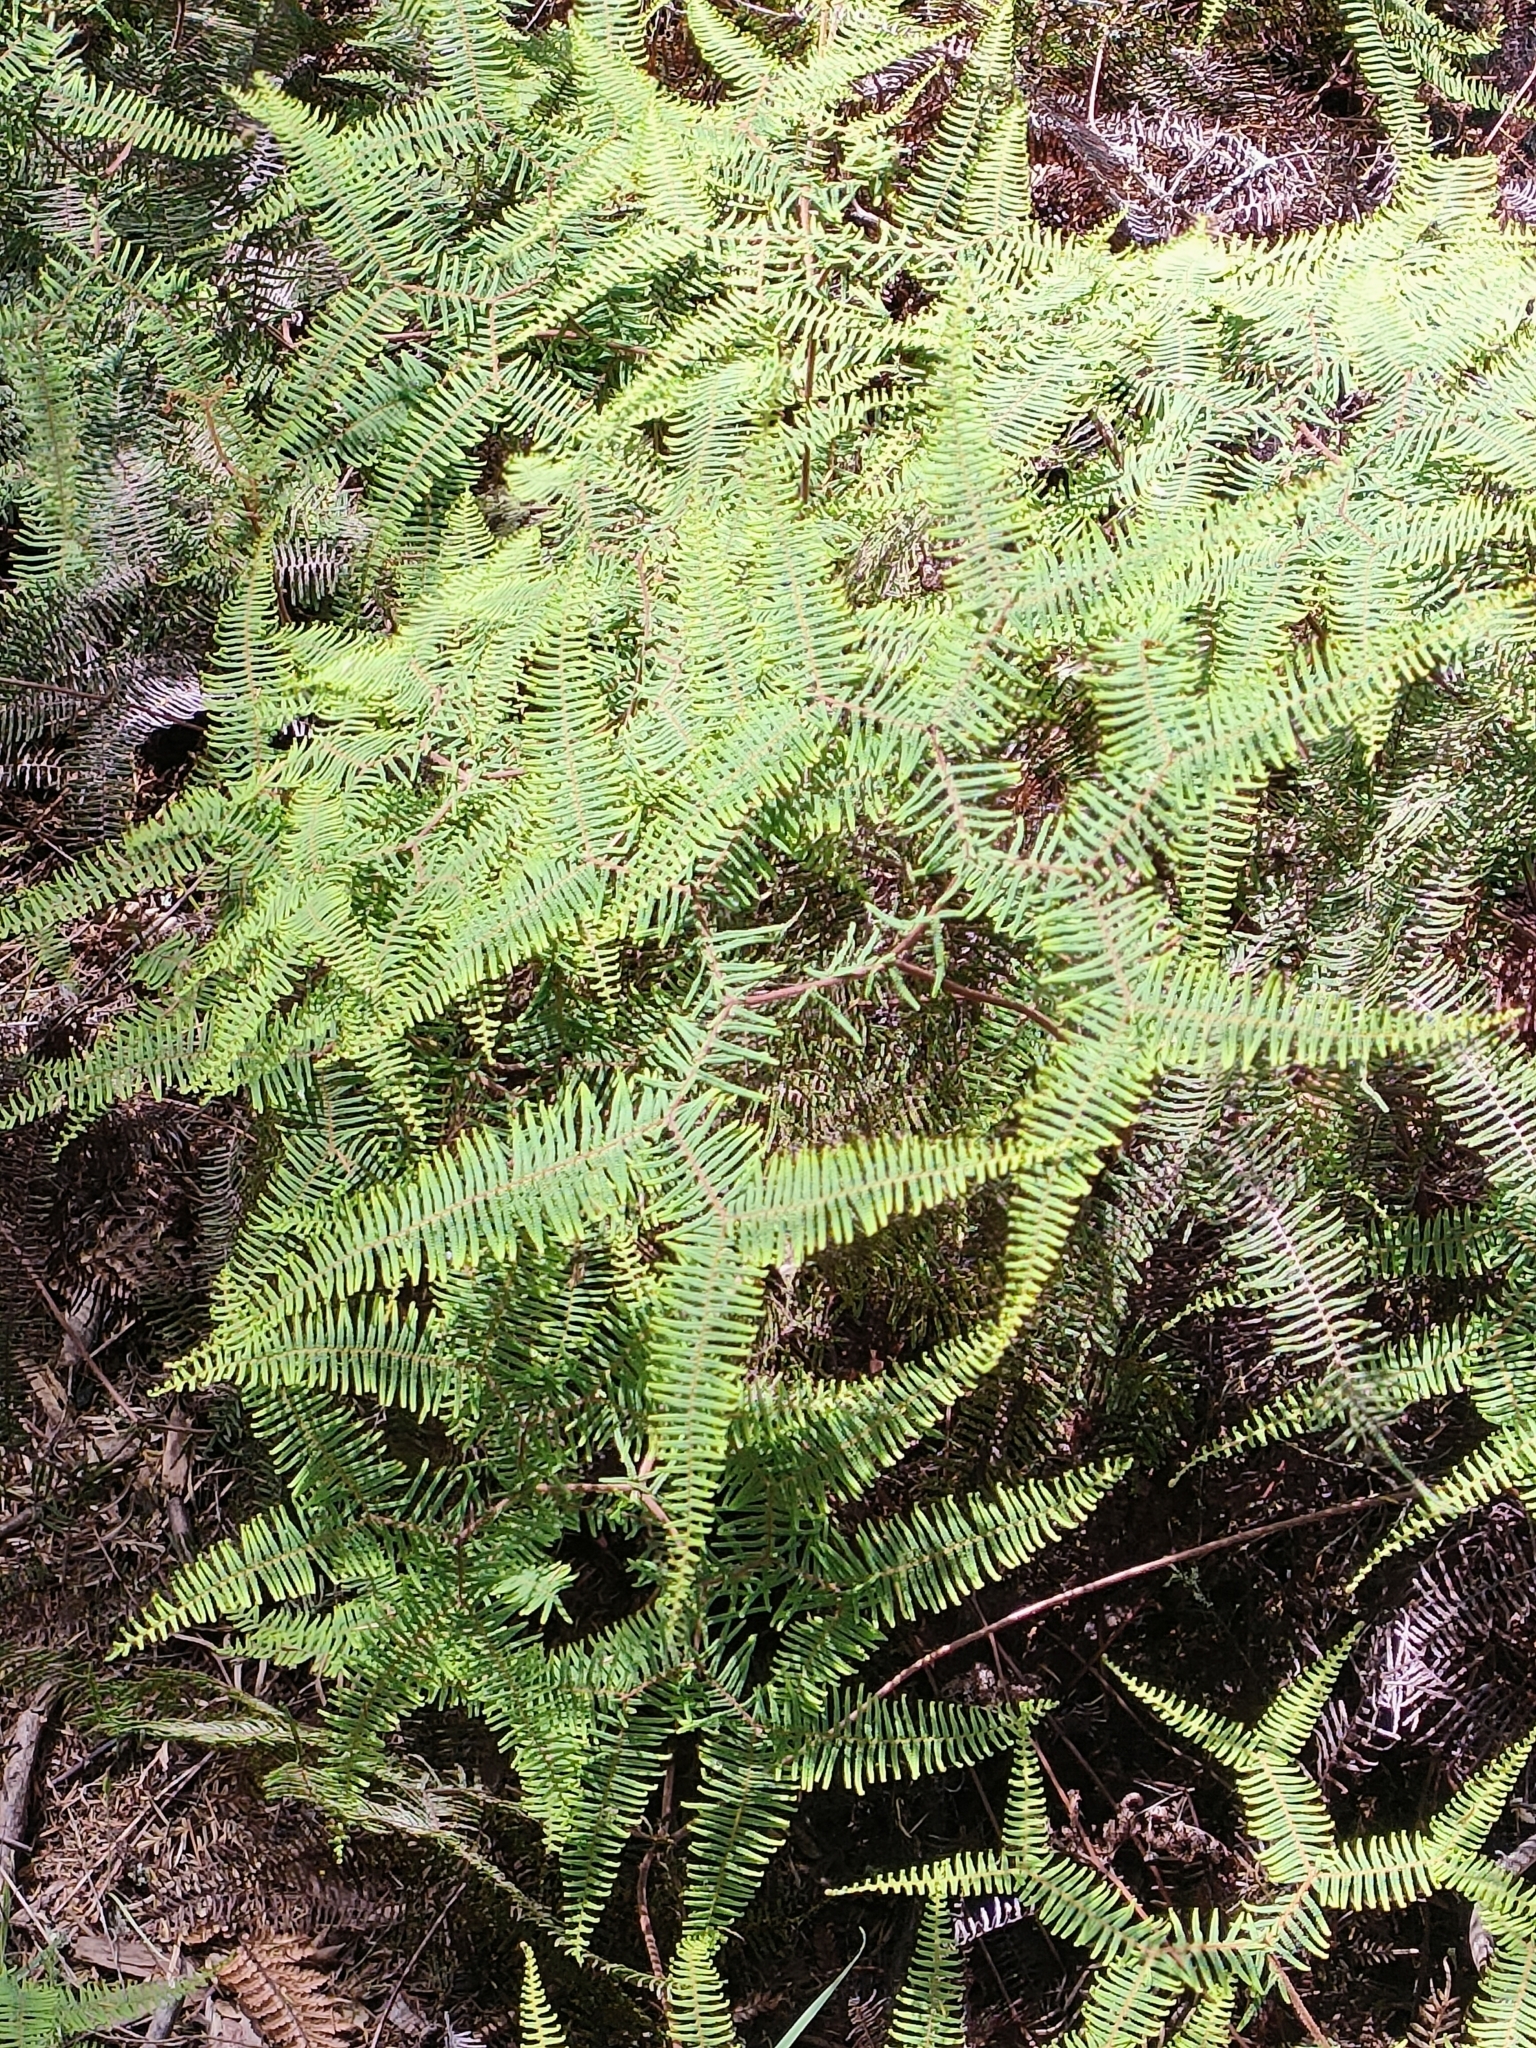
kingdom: Plantae
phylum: Tracheophyta
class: Polypodiopsida
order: Gleicheniales
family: Gleicheniaceae
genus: Gleichenia
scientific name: Gleichenia dicarpa
